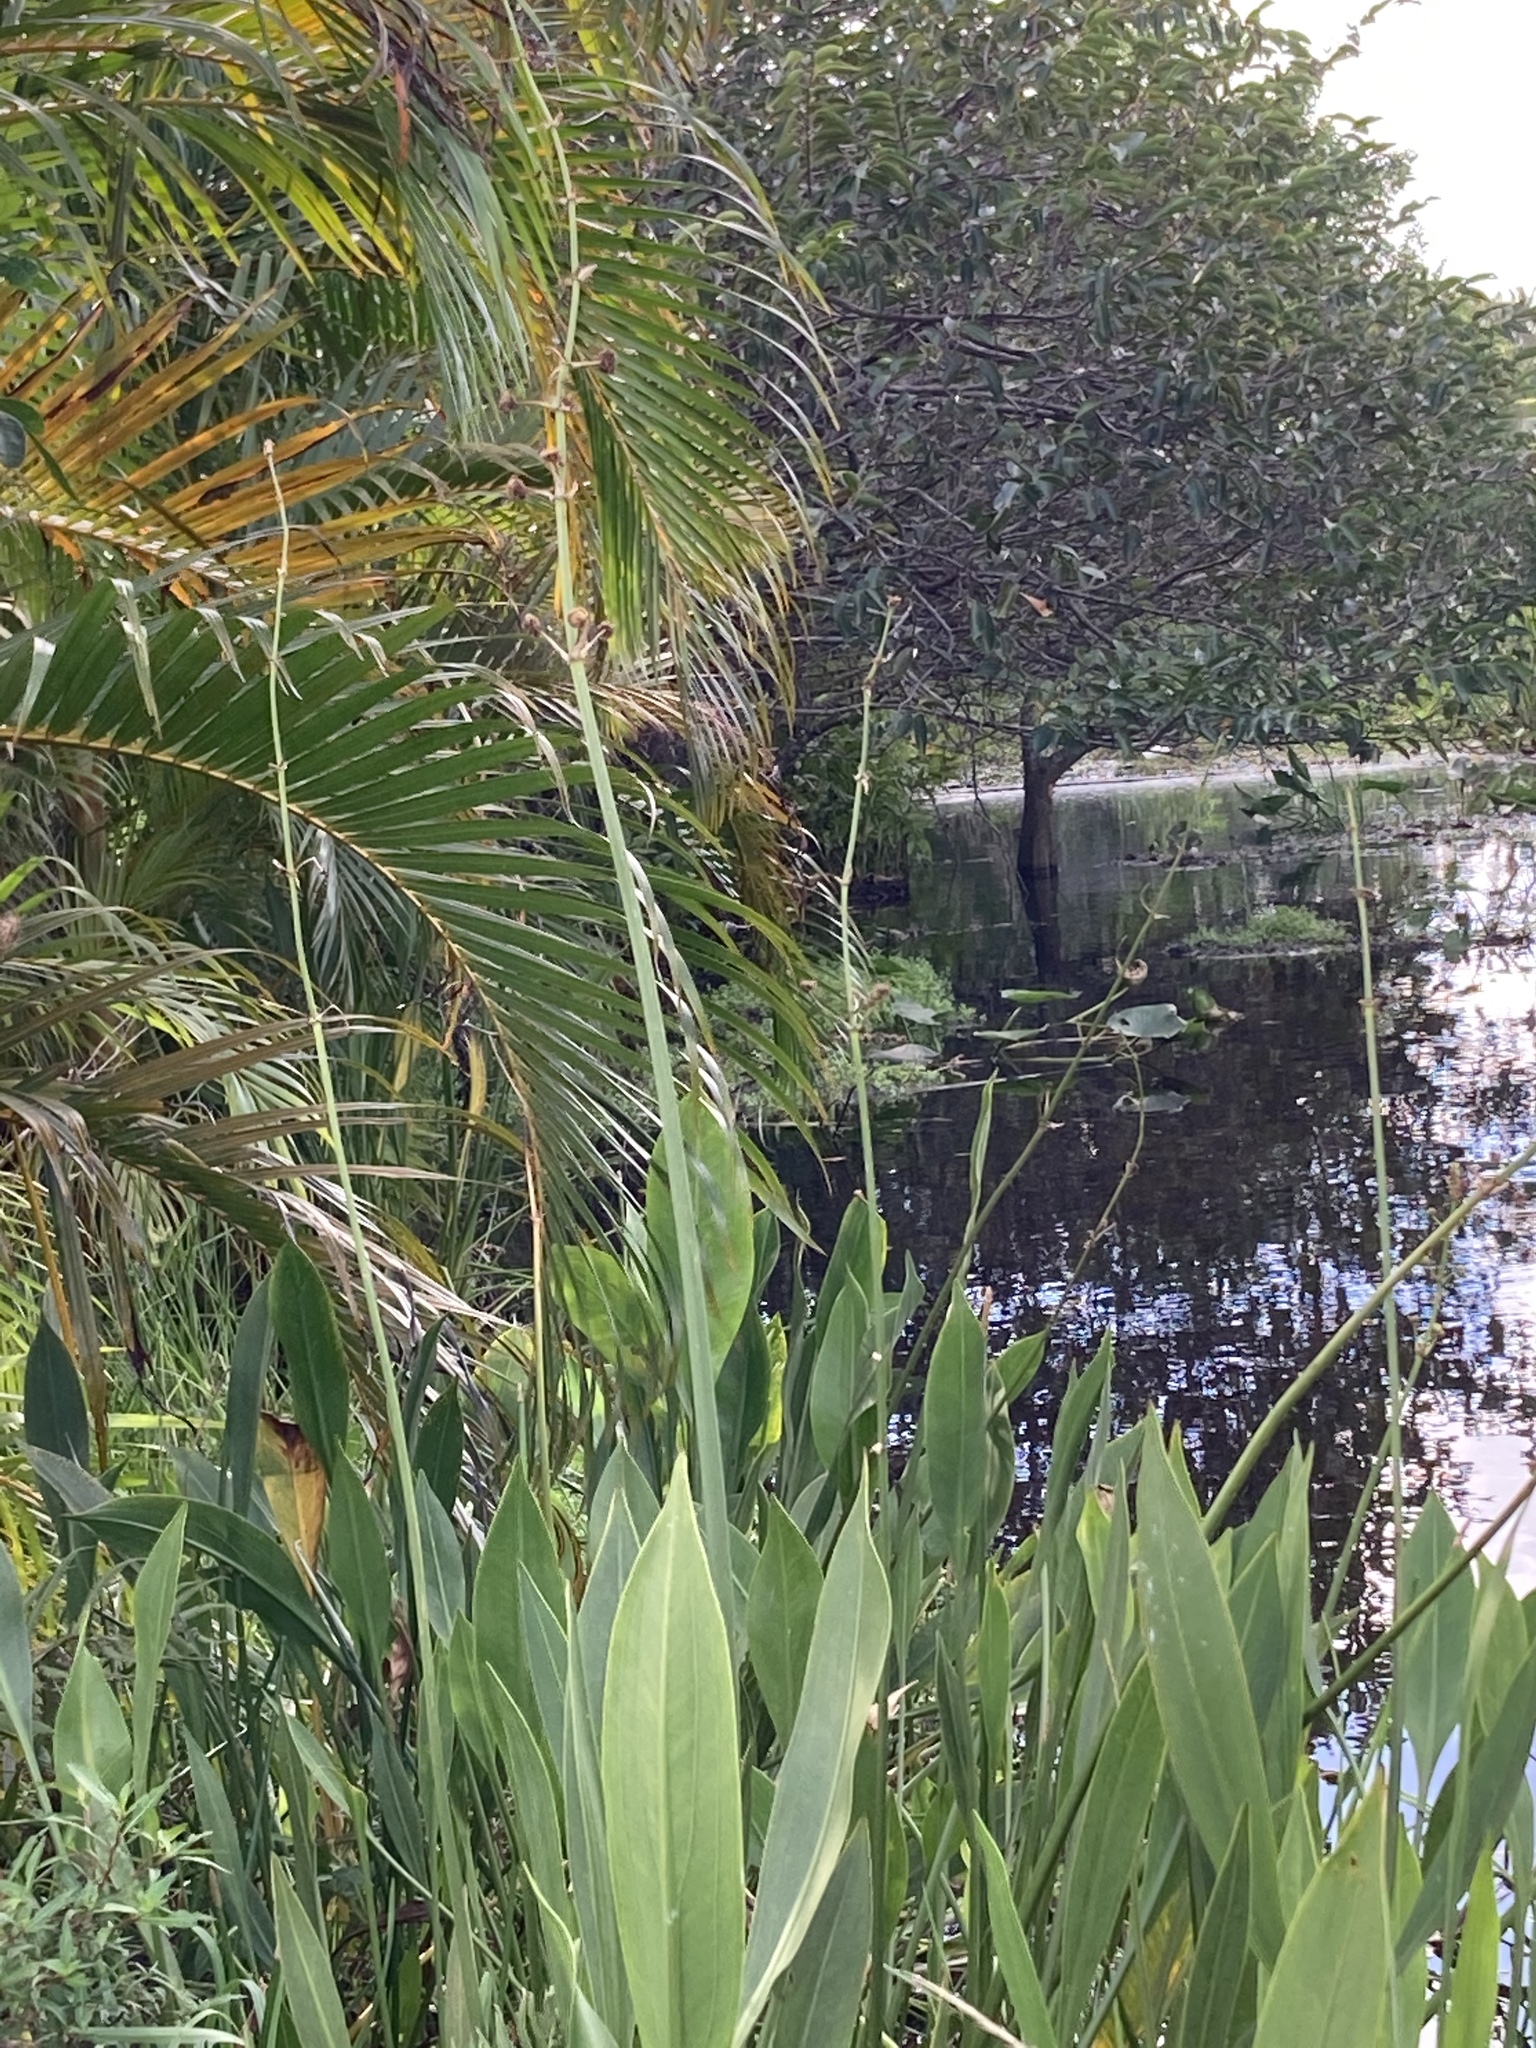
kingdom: Plantae
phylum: Tracheophyta
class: Liliopsida
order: Alismatales
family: Alismataceae
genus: Sagittaria
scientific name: Sagittaria lancifolia
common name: Lance-leaf arrowhead
